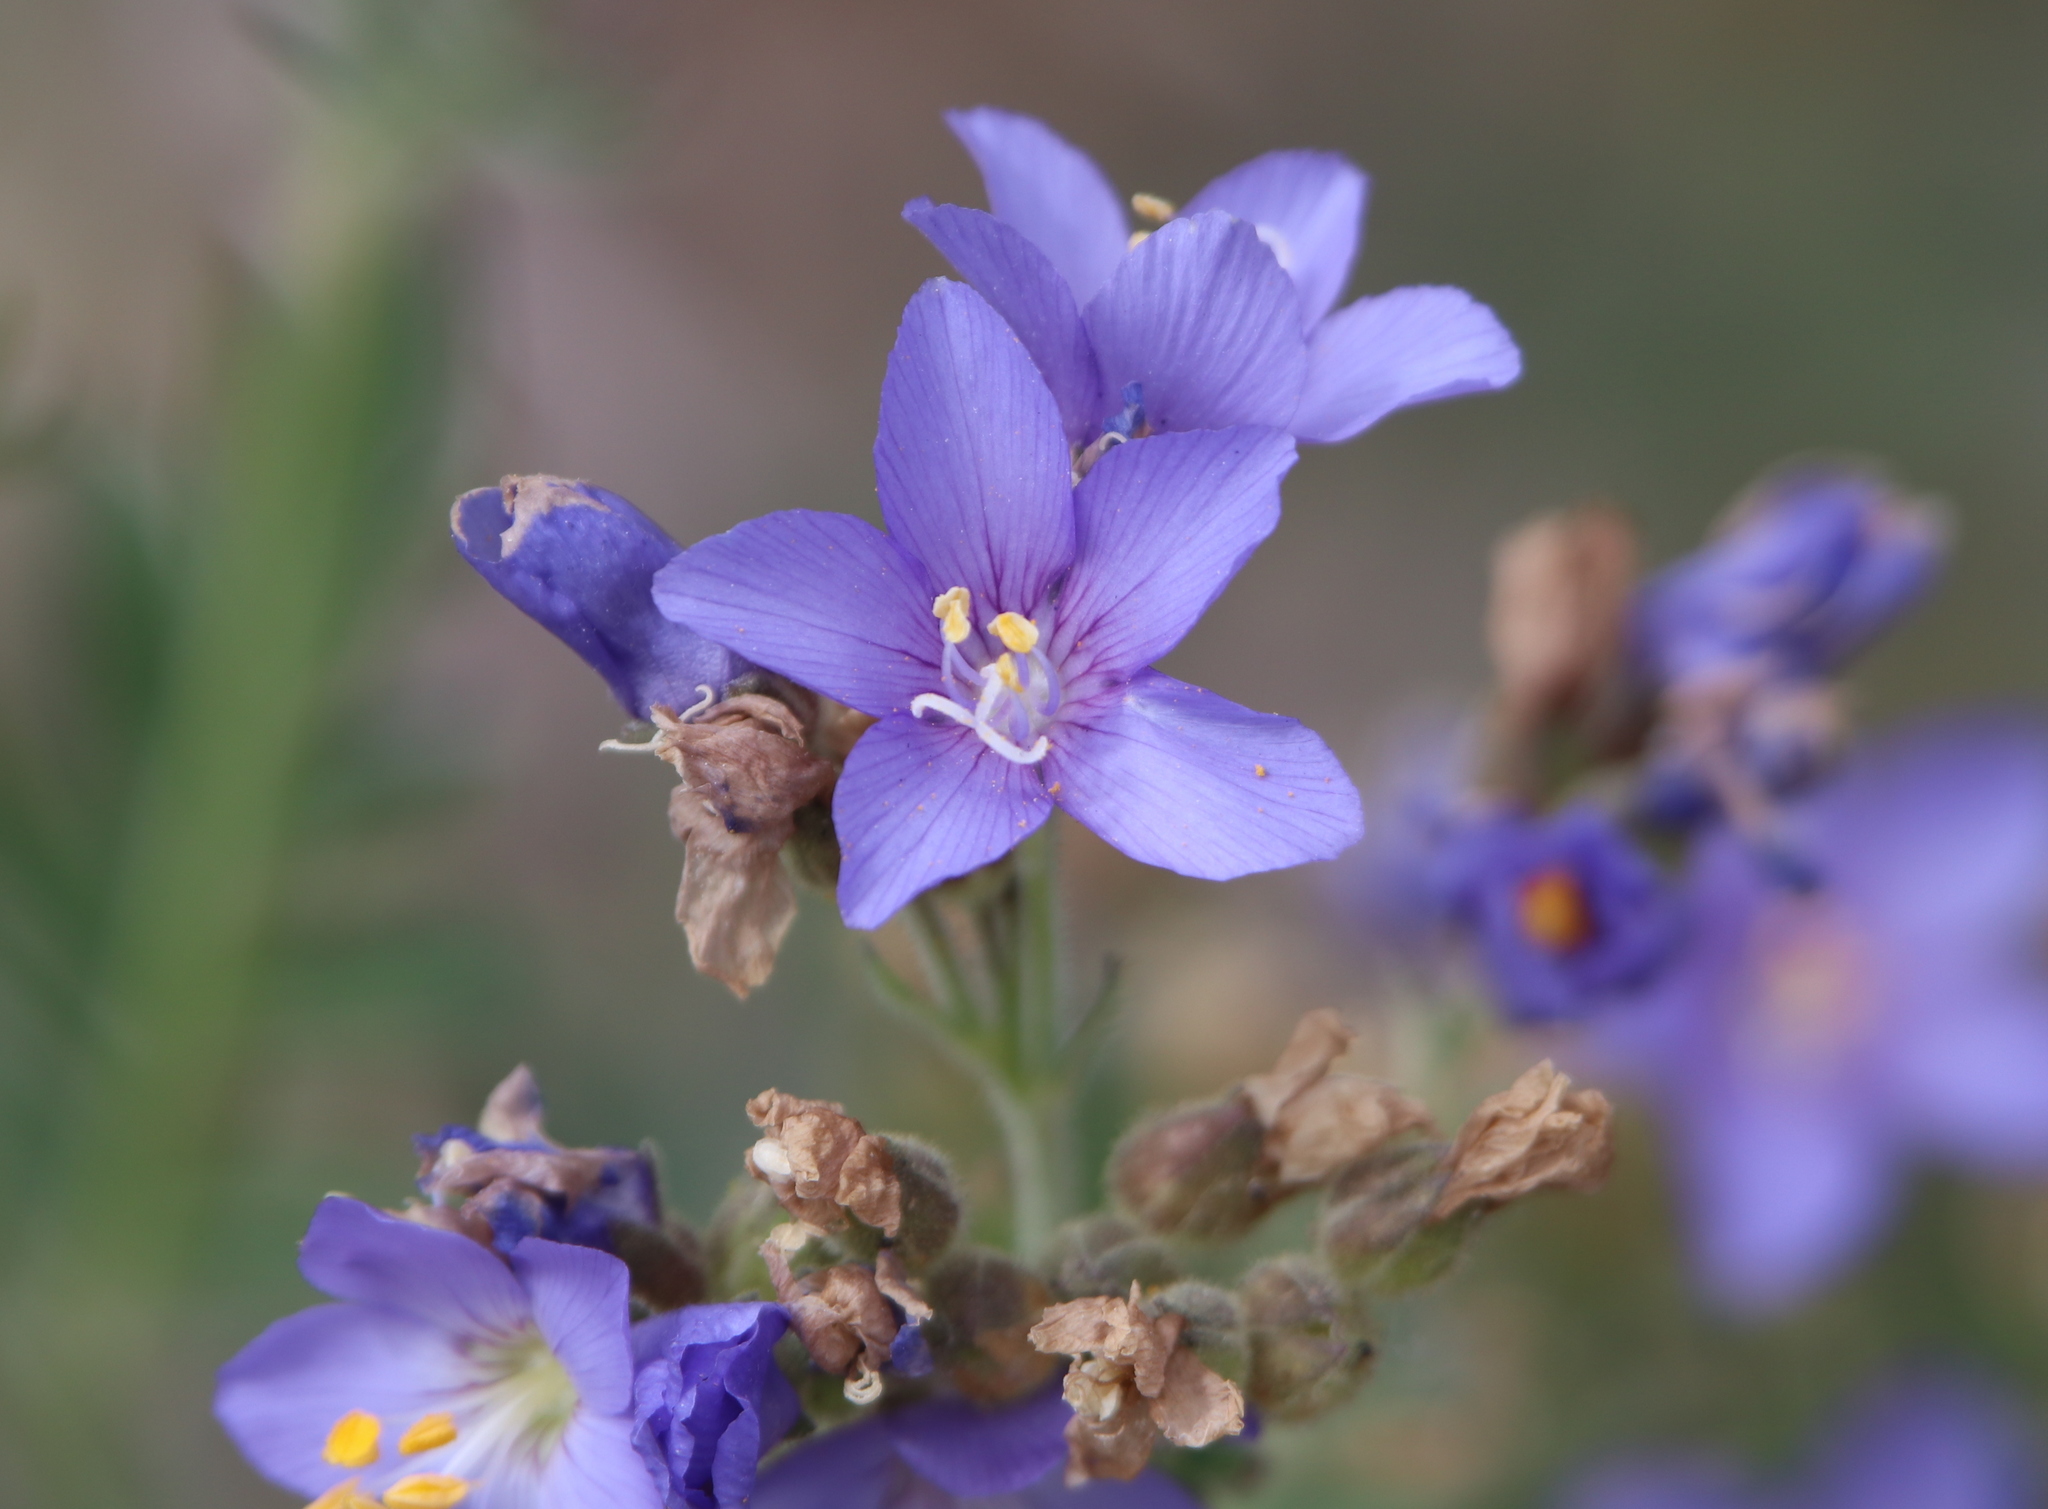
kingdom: Plantae
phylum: Tracheophyta
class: Magnoliopsida
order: Ericales
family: Polemoniaceae
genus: Polemonium
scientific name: Polemonium foliosissimum
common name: Leafy jacob's-ladder
